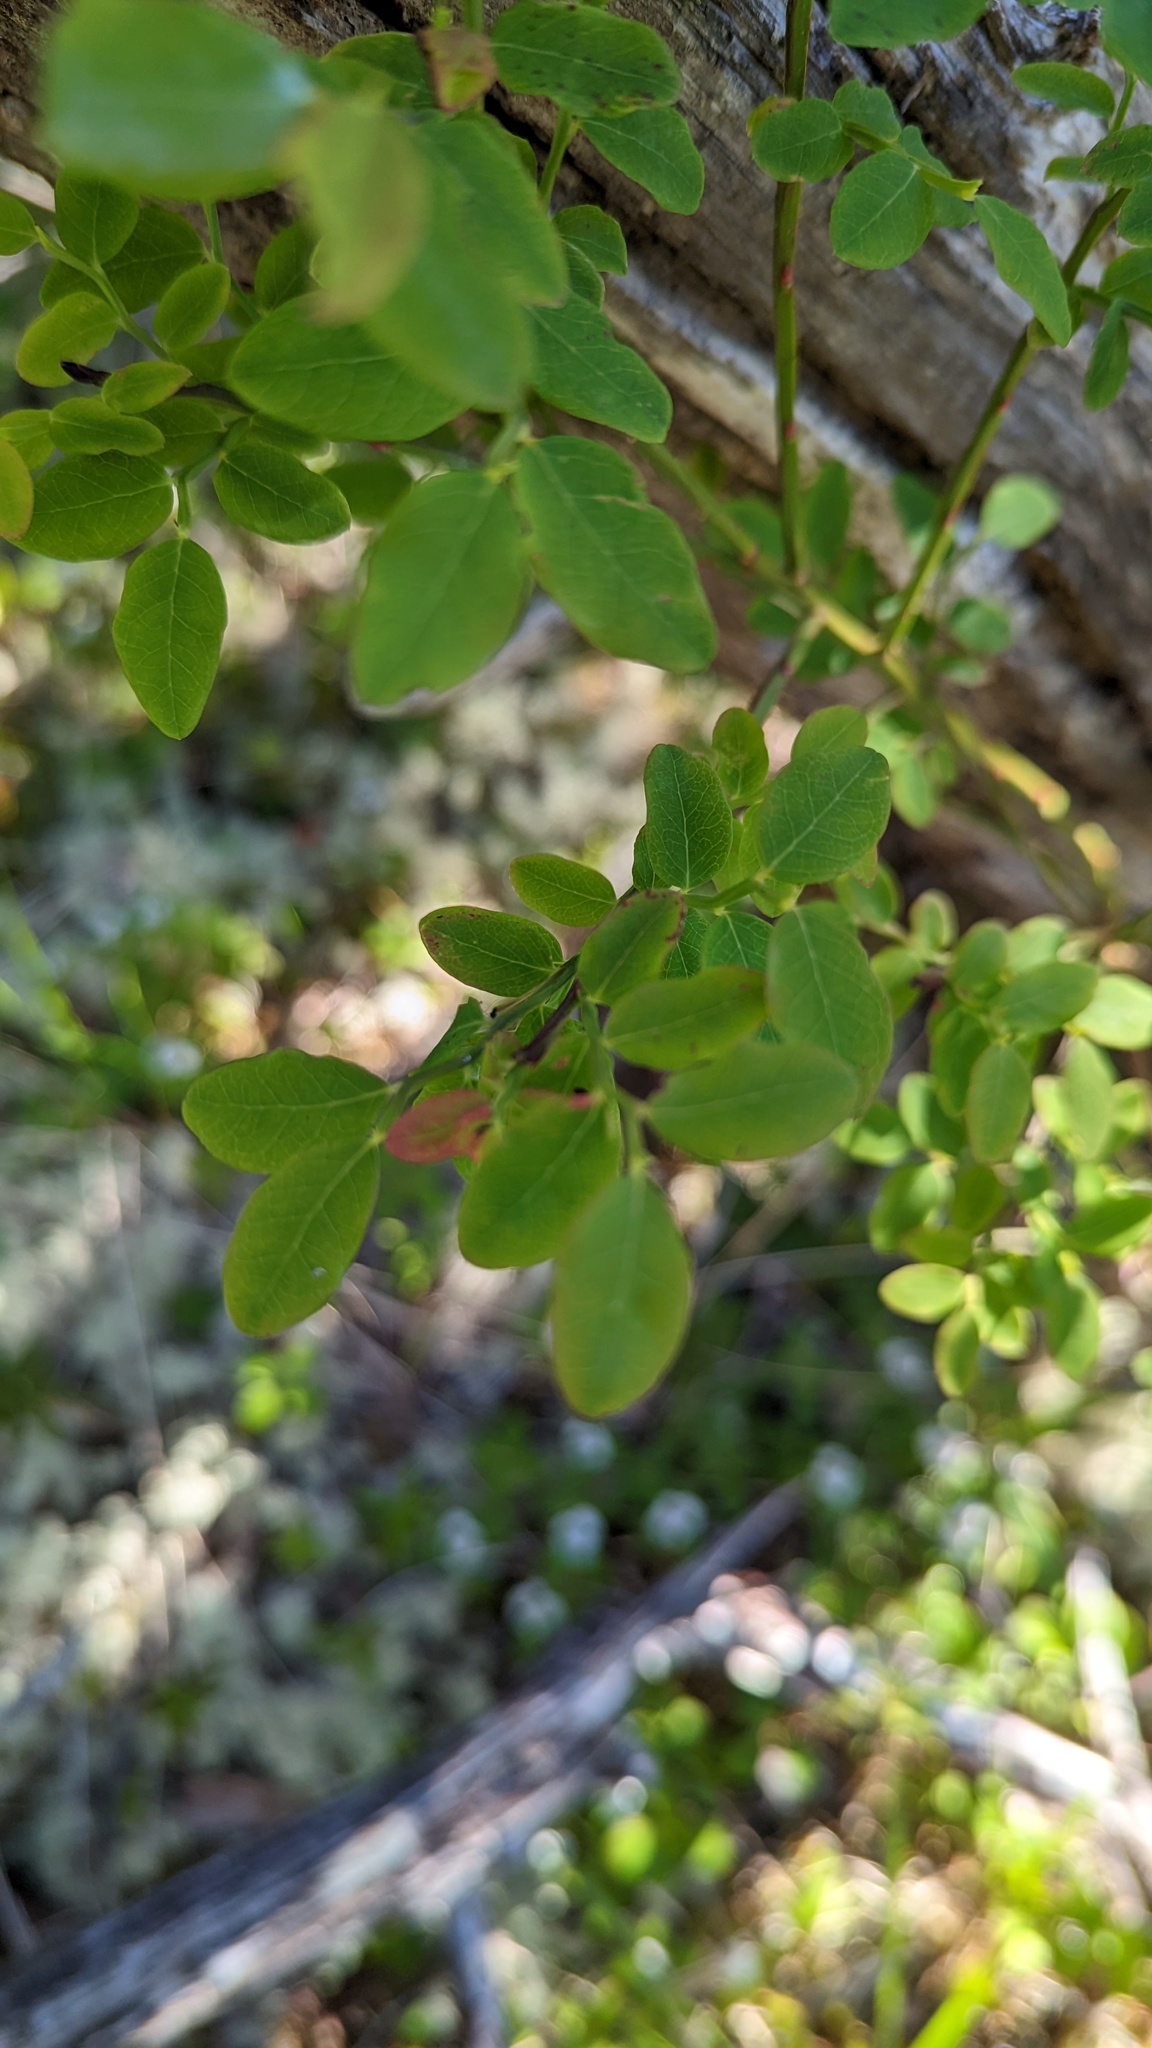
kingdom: Plantae
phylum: Tracheophyta
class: Magnoliopsida
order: Ericales
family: Ericaceae
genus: Vaccinium
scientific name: Vaccinium parvifolium
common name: Red-huckleberry
